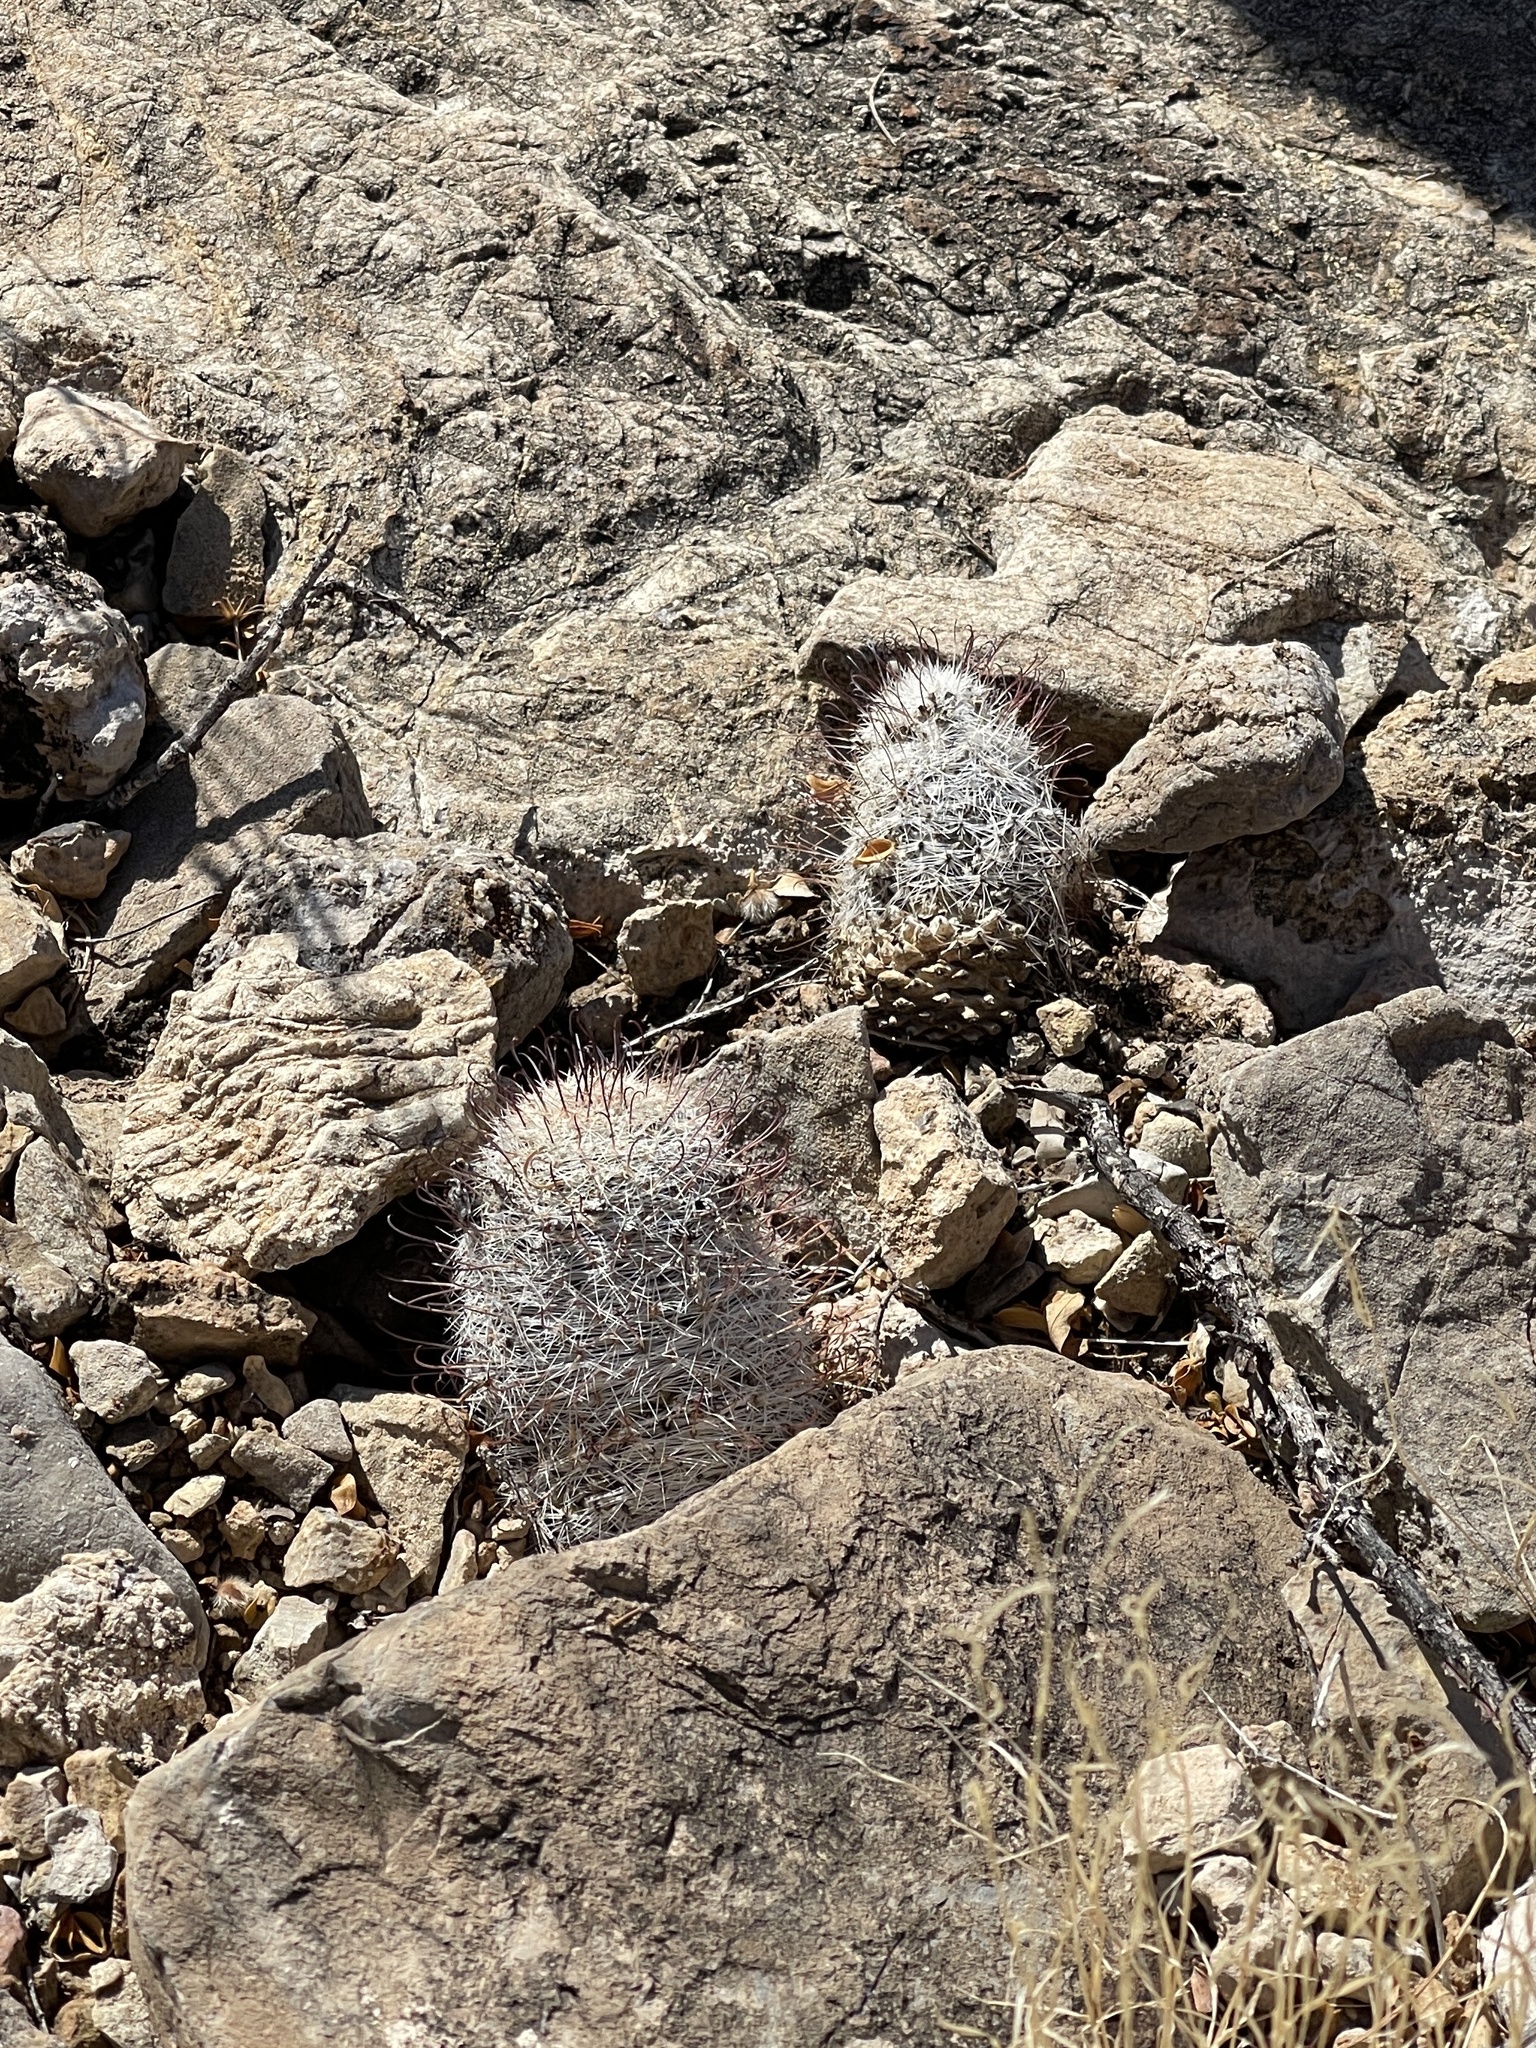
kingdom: Plantae
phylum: Tracheophyta
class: Magnoliopsida
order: Caryophyllales
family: Cactaceae
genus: Cochemiea
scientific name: Cochemiea grahamii
